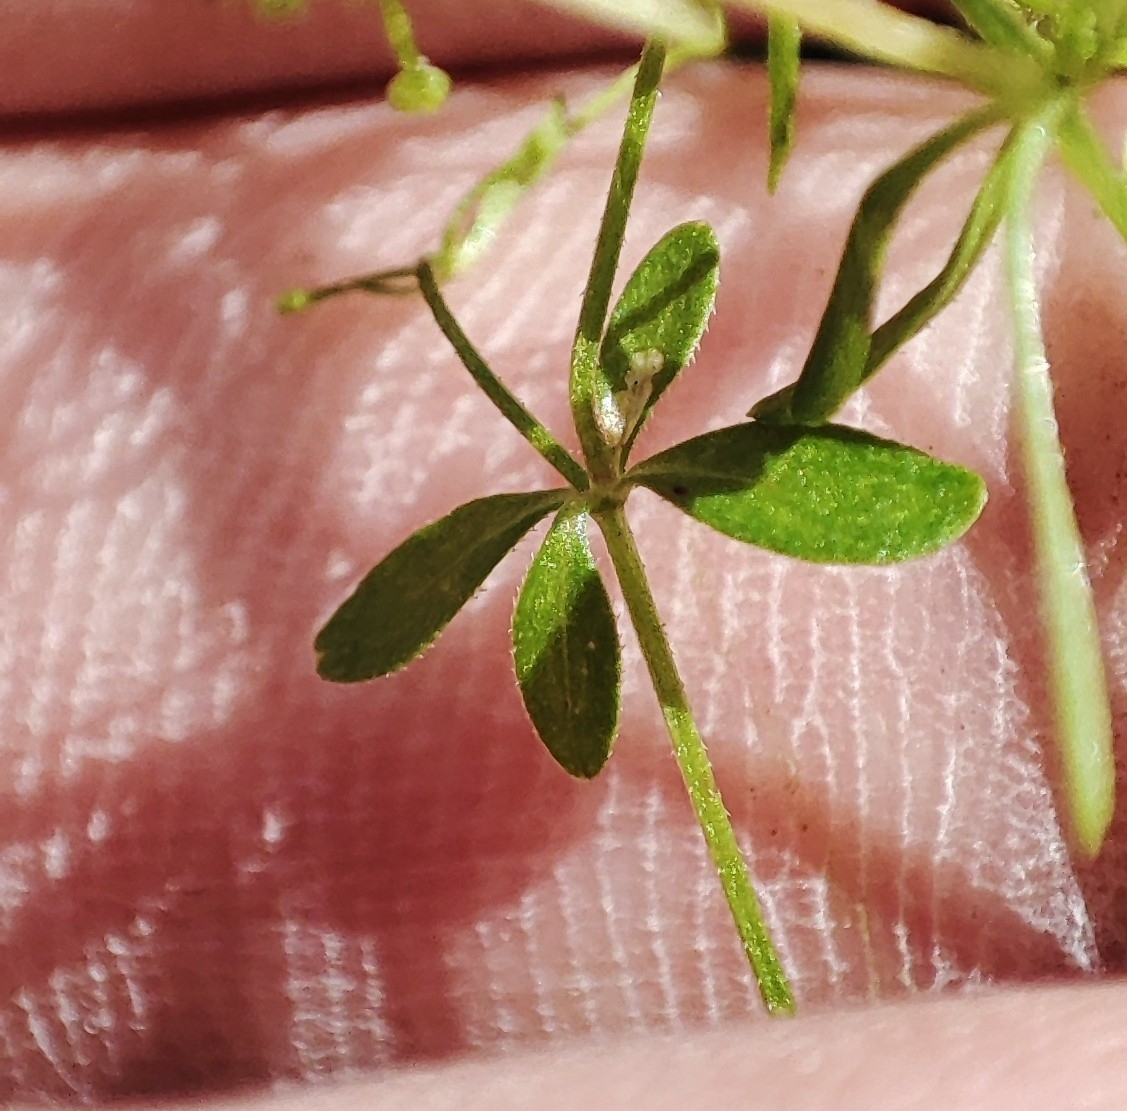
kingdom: Plantae
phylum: Tracheophyta
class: Magnoliopsida
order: Gentianales
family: Rubiaceae
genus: Galium
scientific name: Galium trifidum
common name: Small bedstraw
